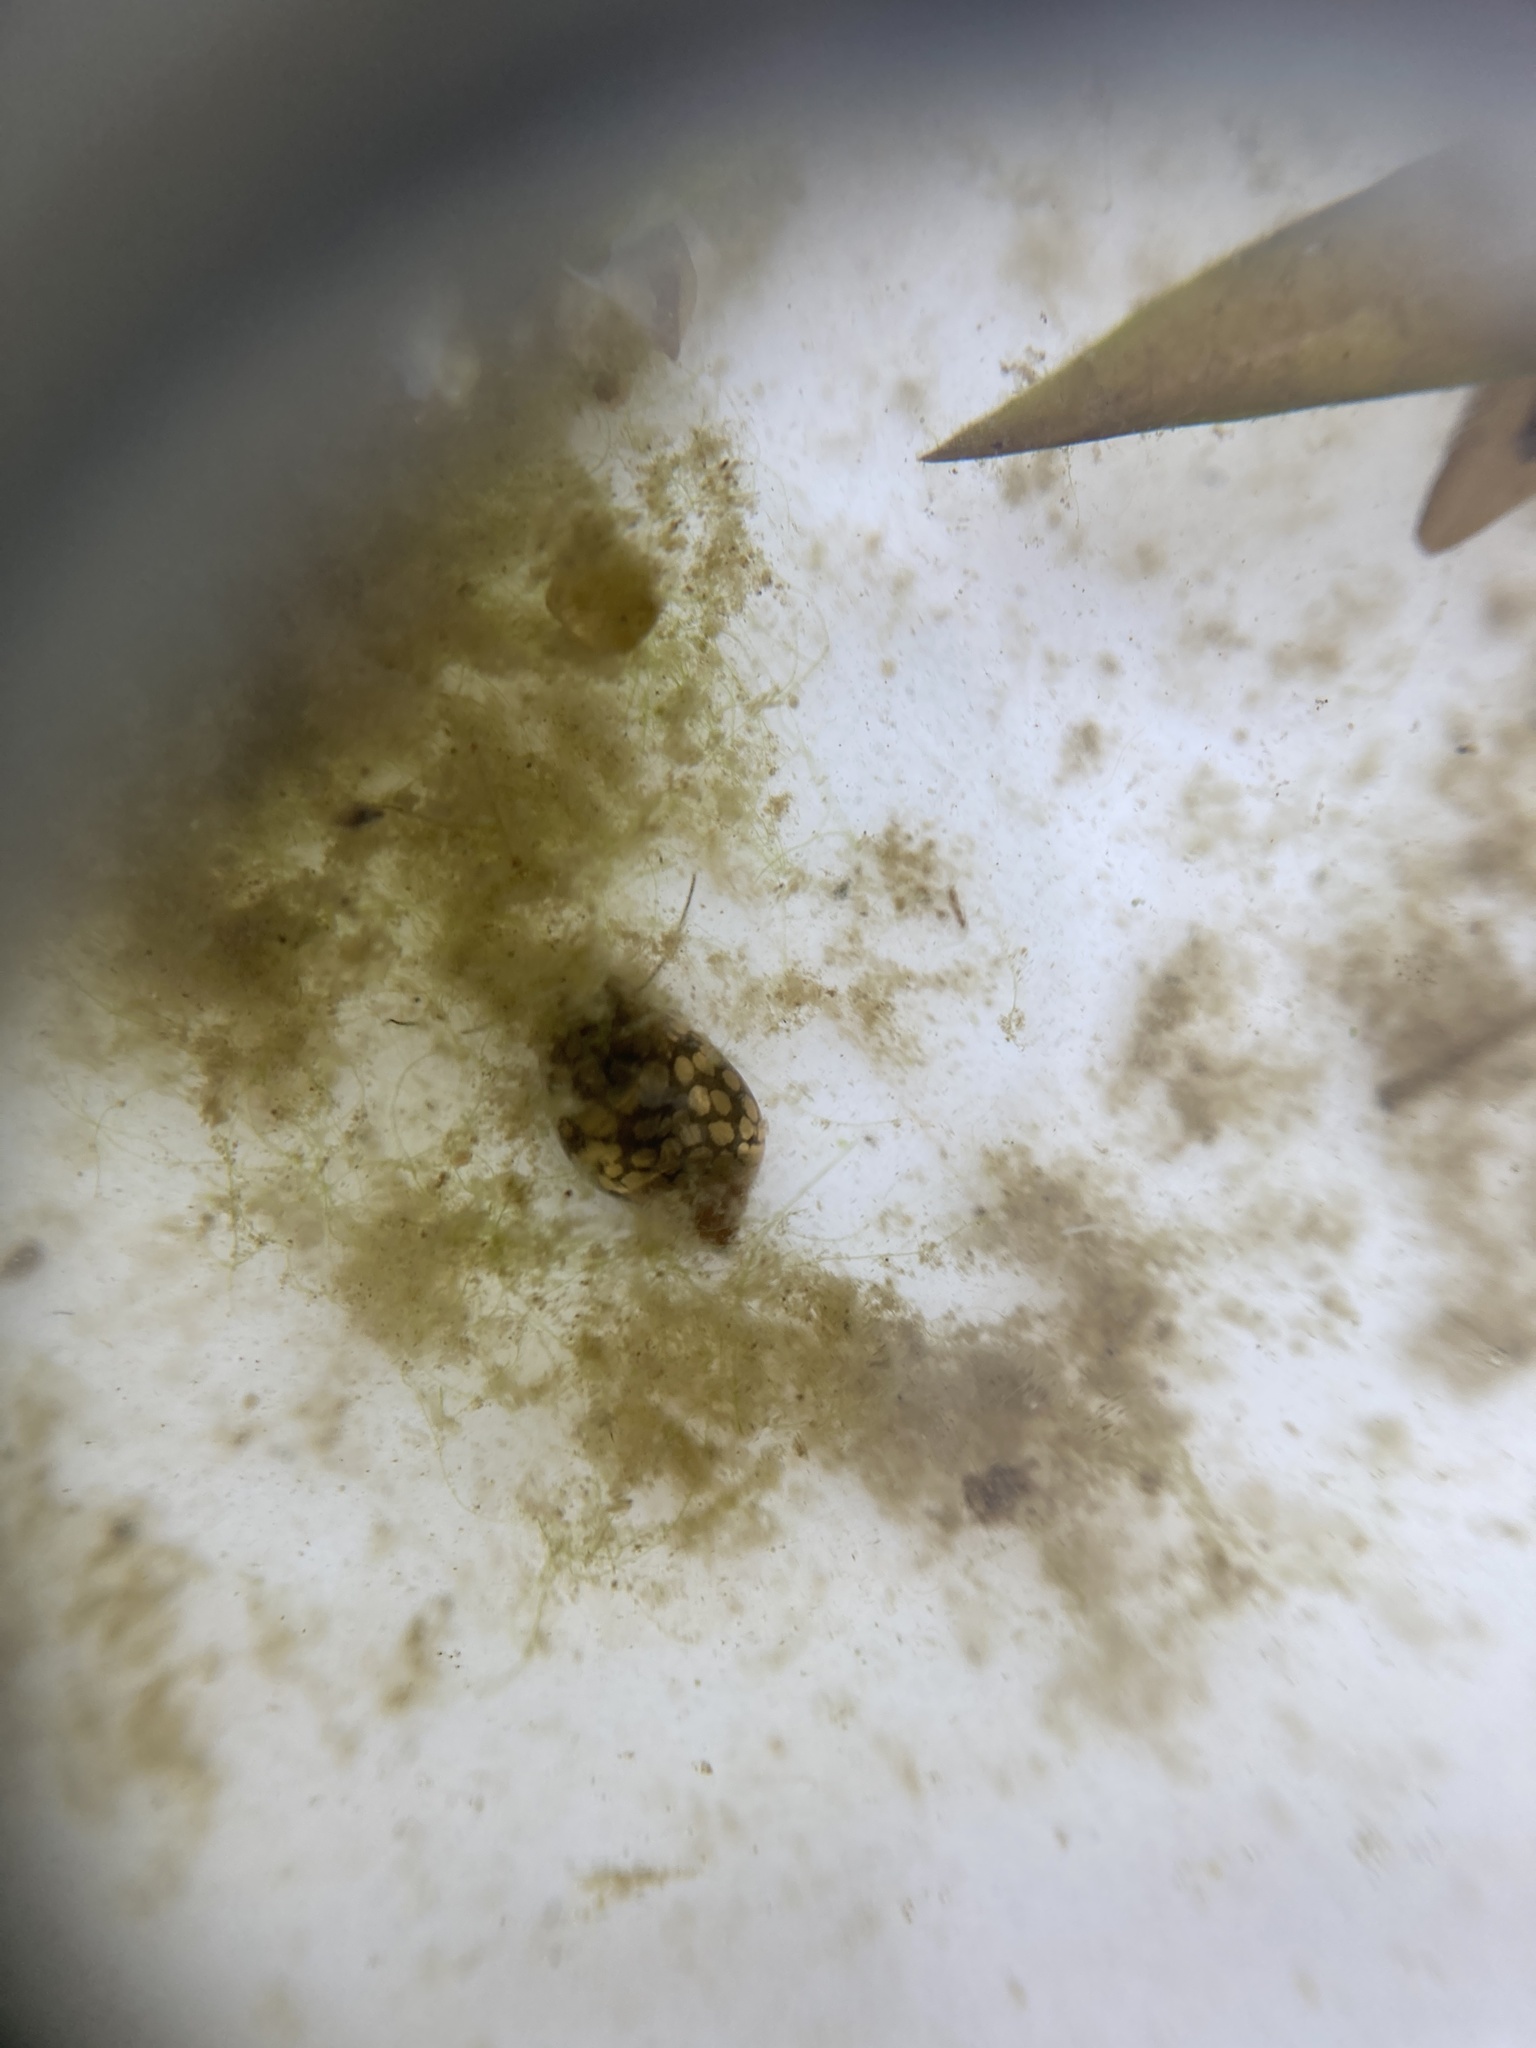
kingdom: Animalia
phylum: Mollusca
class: Gastropoda
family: Physidae
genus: Physella
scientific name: Physella acuta
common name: European physa
